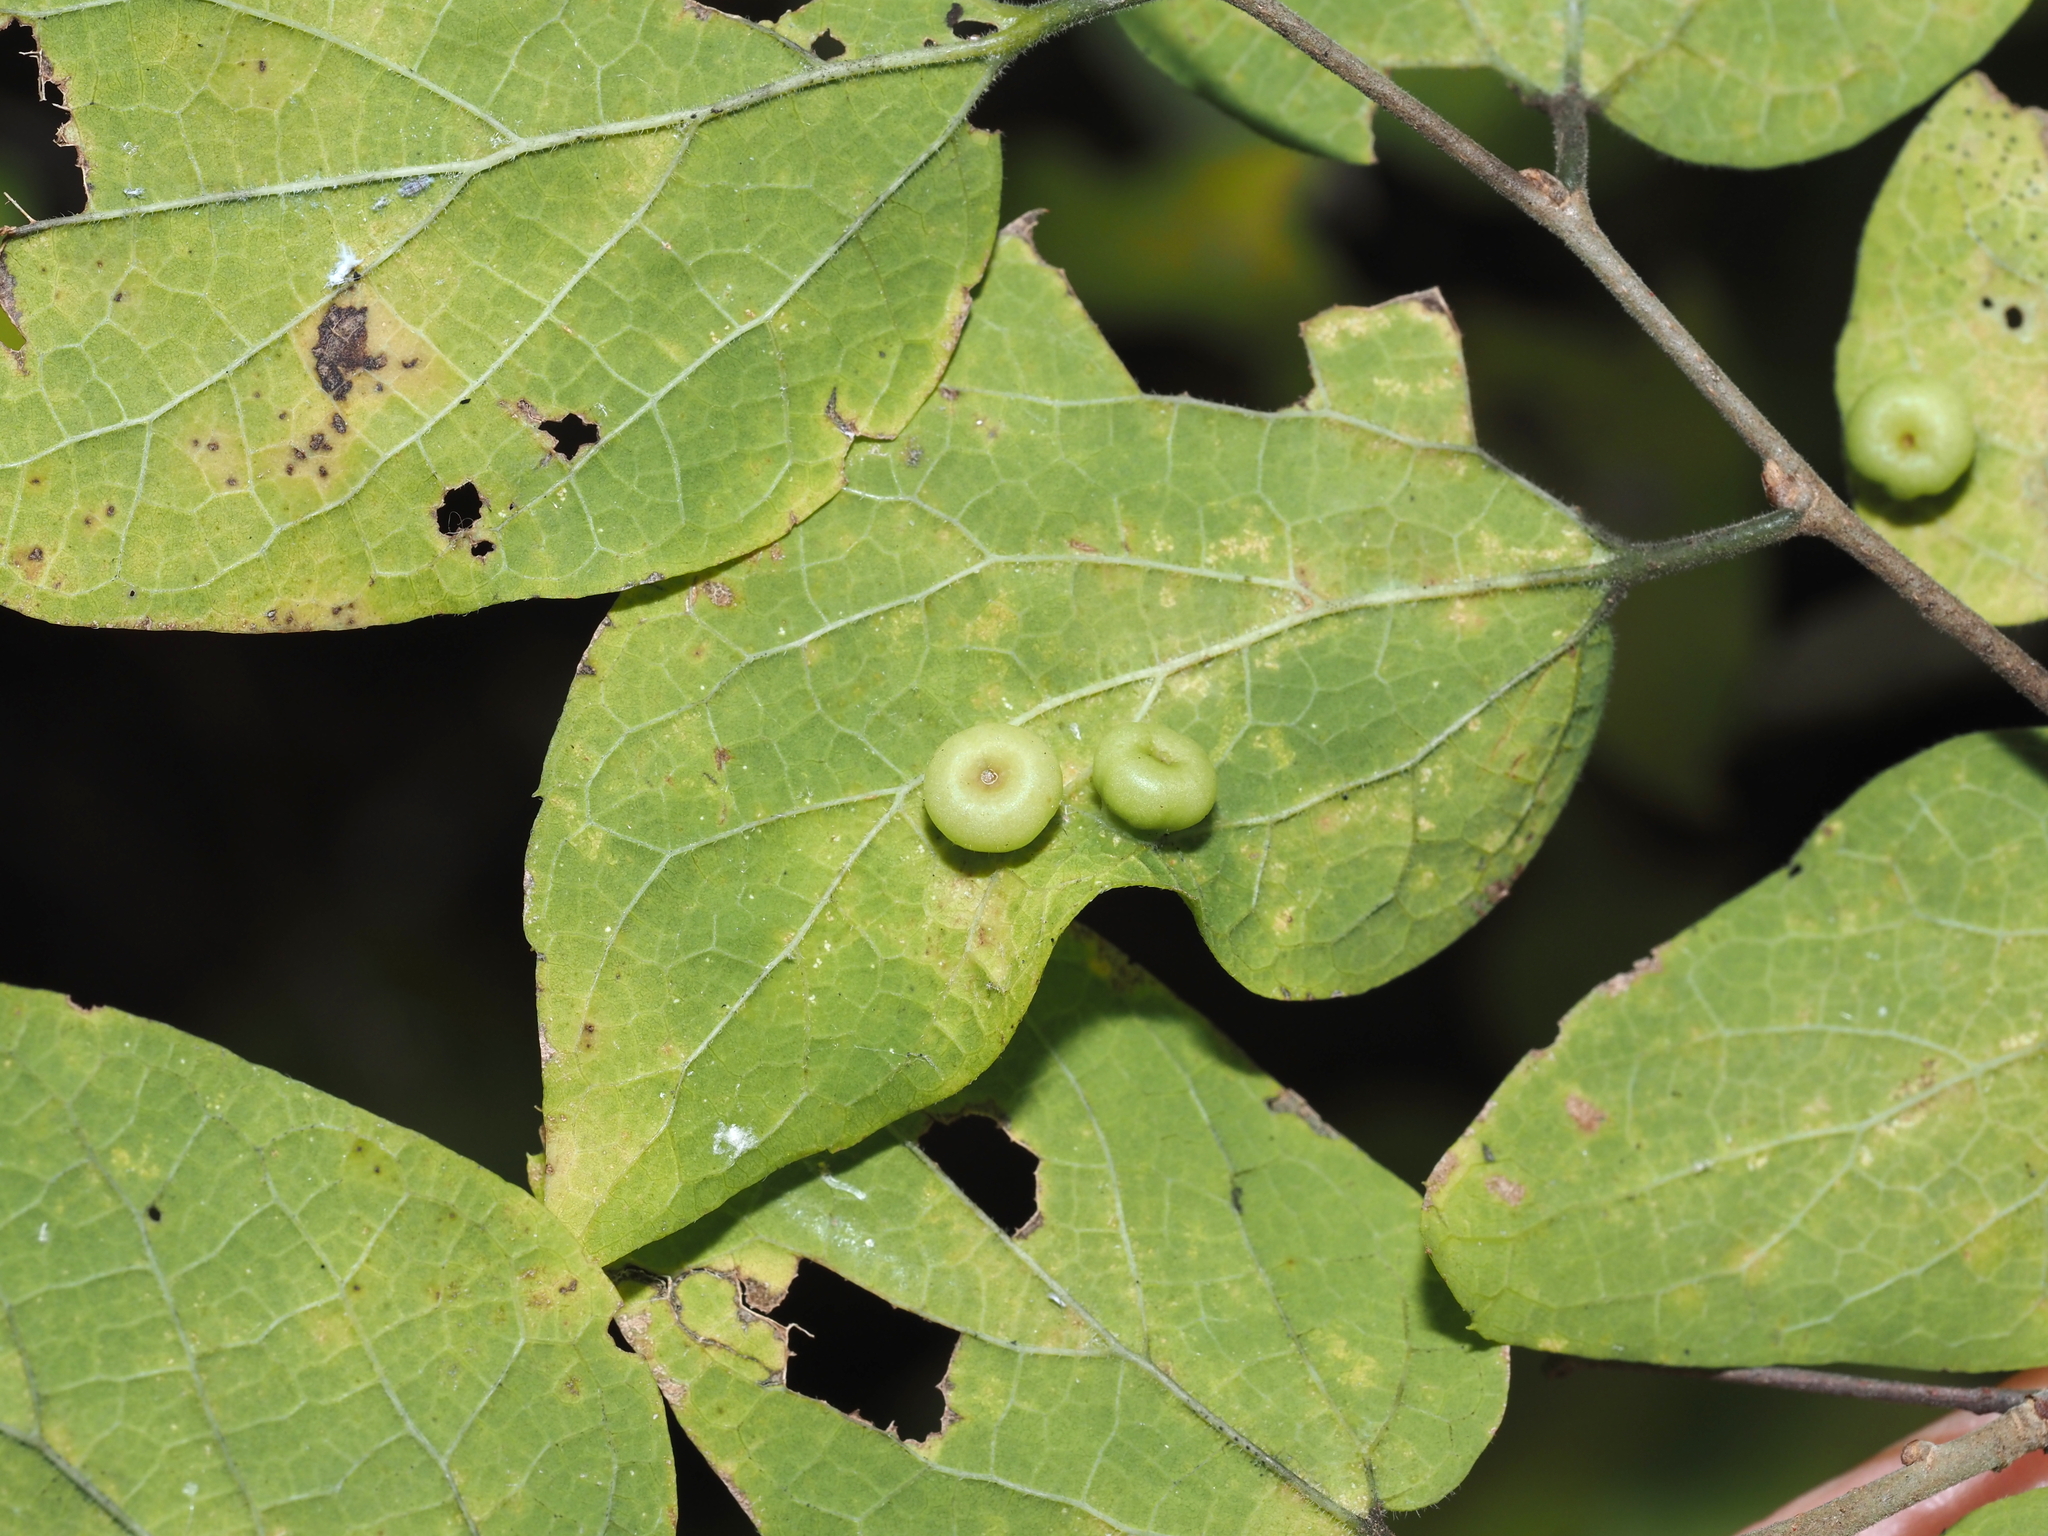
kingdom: Animalia
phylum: Arthropoda
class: Insecta
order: Hemiptera
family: Aphalaridae
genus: Pachypsylla
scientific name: Pachypsylla celtidismamma
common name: Hackberry nipplegall psyllid
